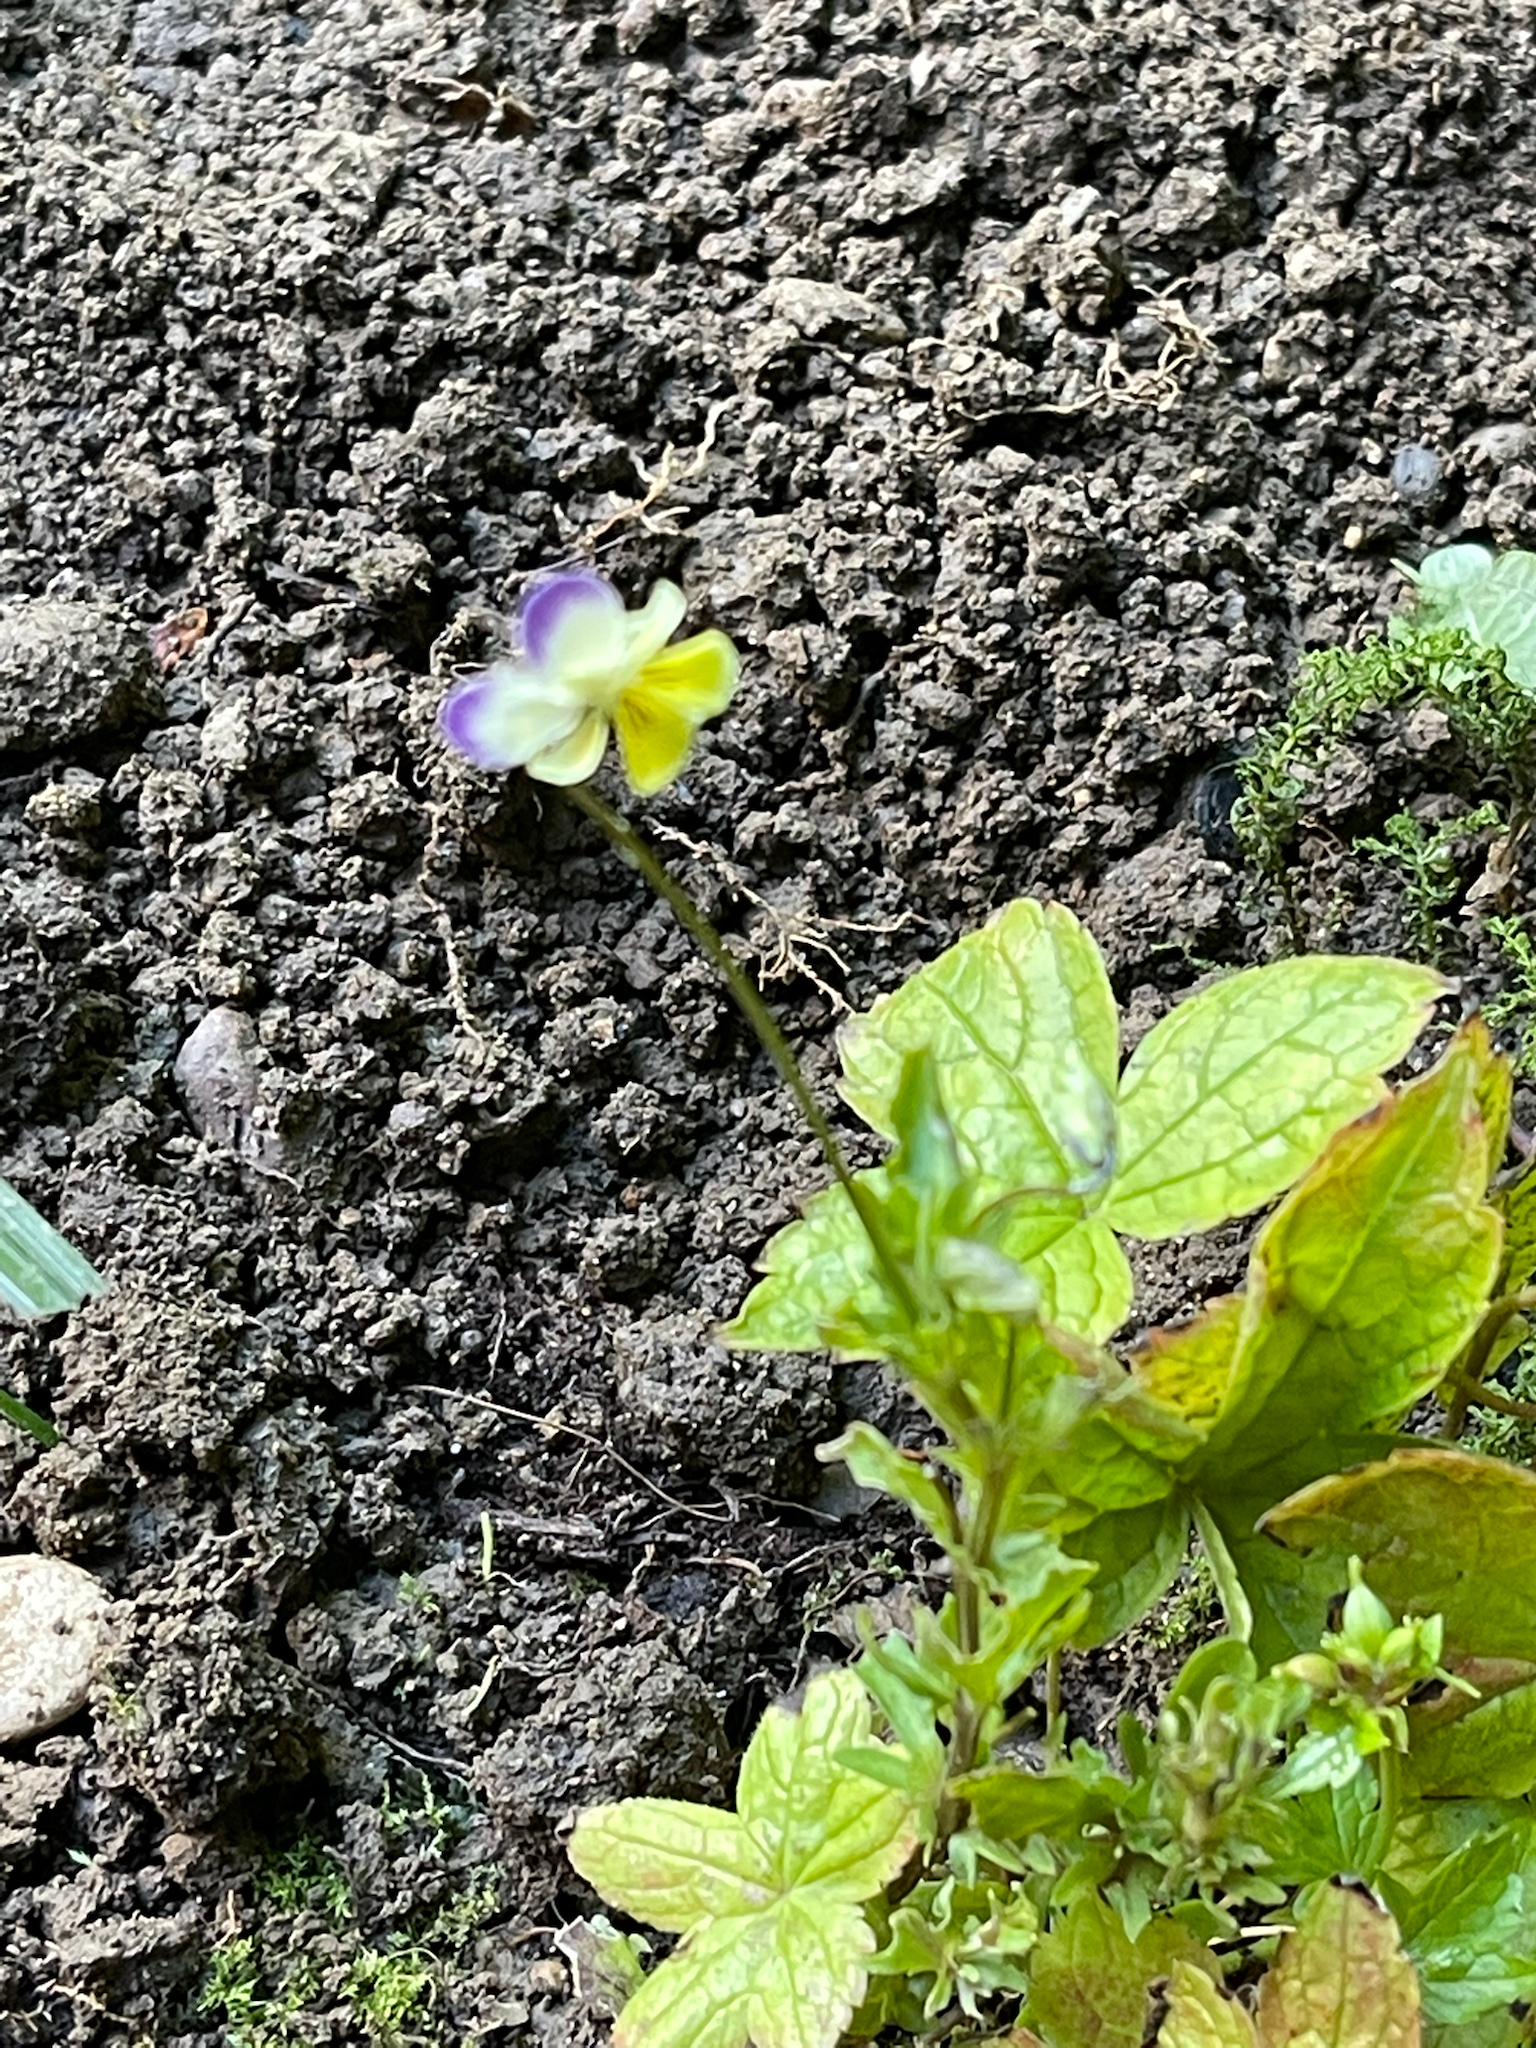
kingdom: Plantae
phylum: Tracheophyta
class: Magnoliopsida
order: Malpighiales
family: Violaceae
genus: Viola
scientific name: Viola tricolor
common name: Pansy
